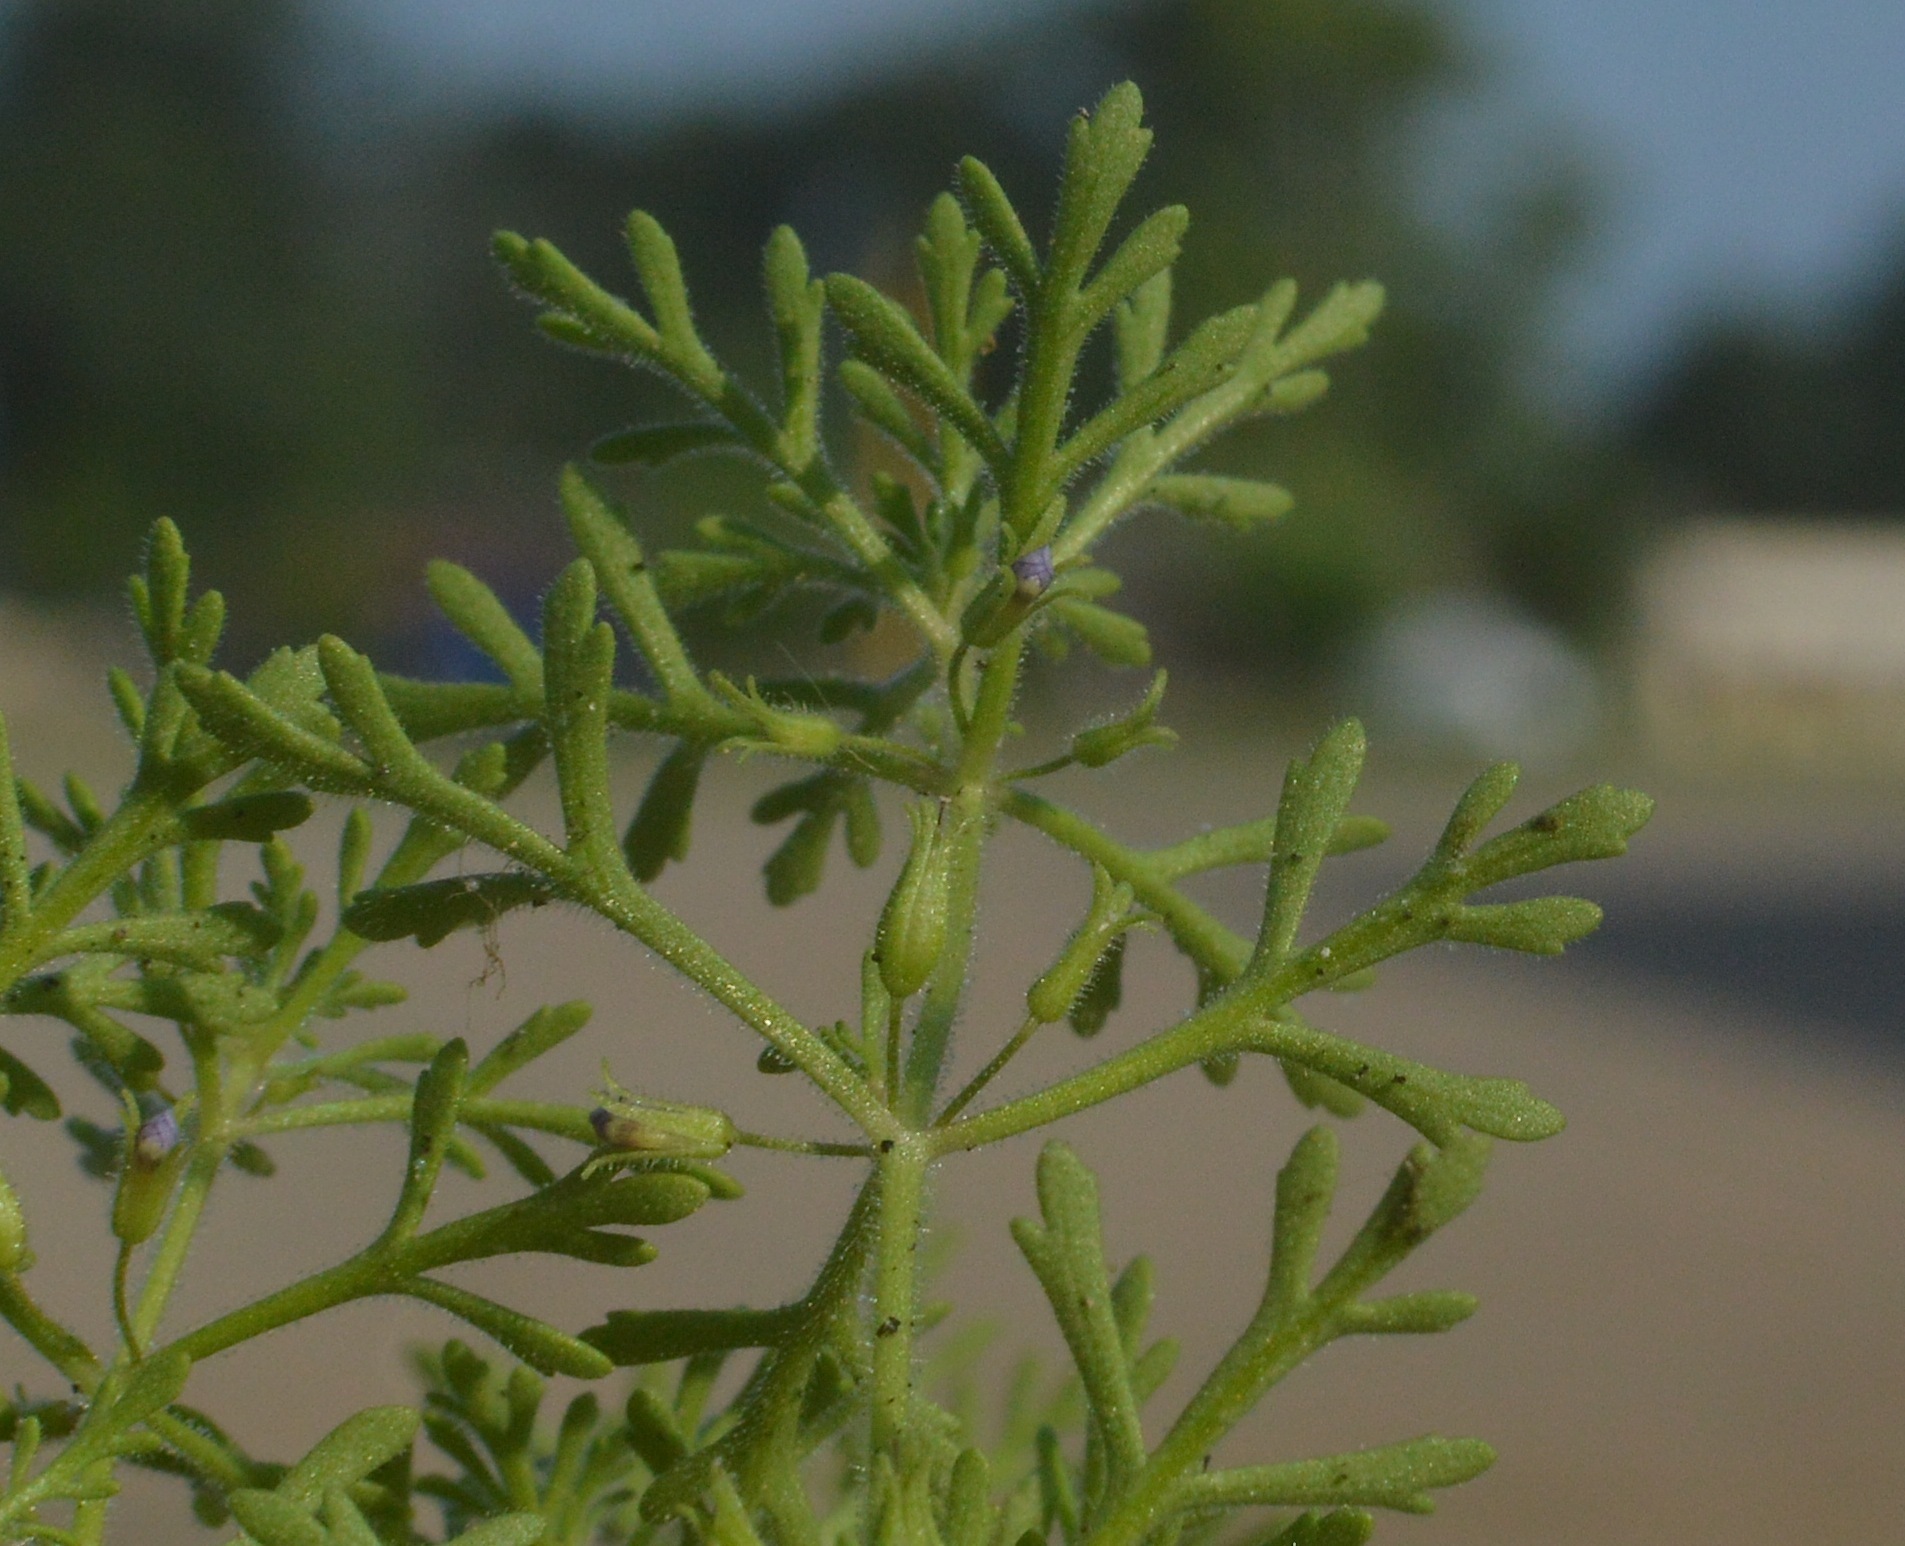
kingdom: Plantae
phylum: Tracheophyta
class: Magnoliopsida
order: Lamiales
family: Plantaginaceae
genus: Leucospora
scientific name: Leucospora multifida
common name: Narrow-leaf paleseed
